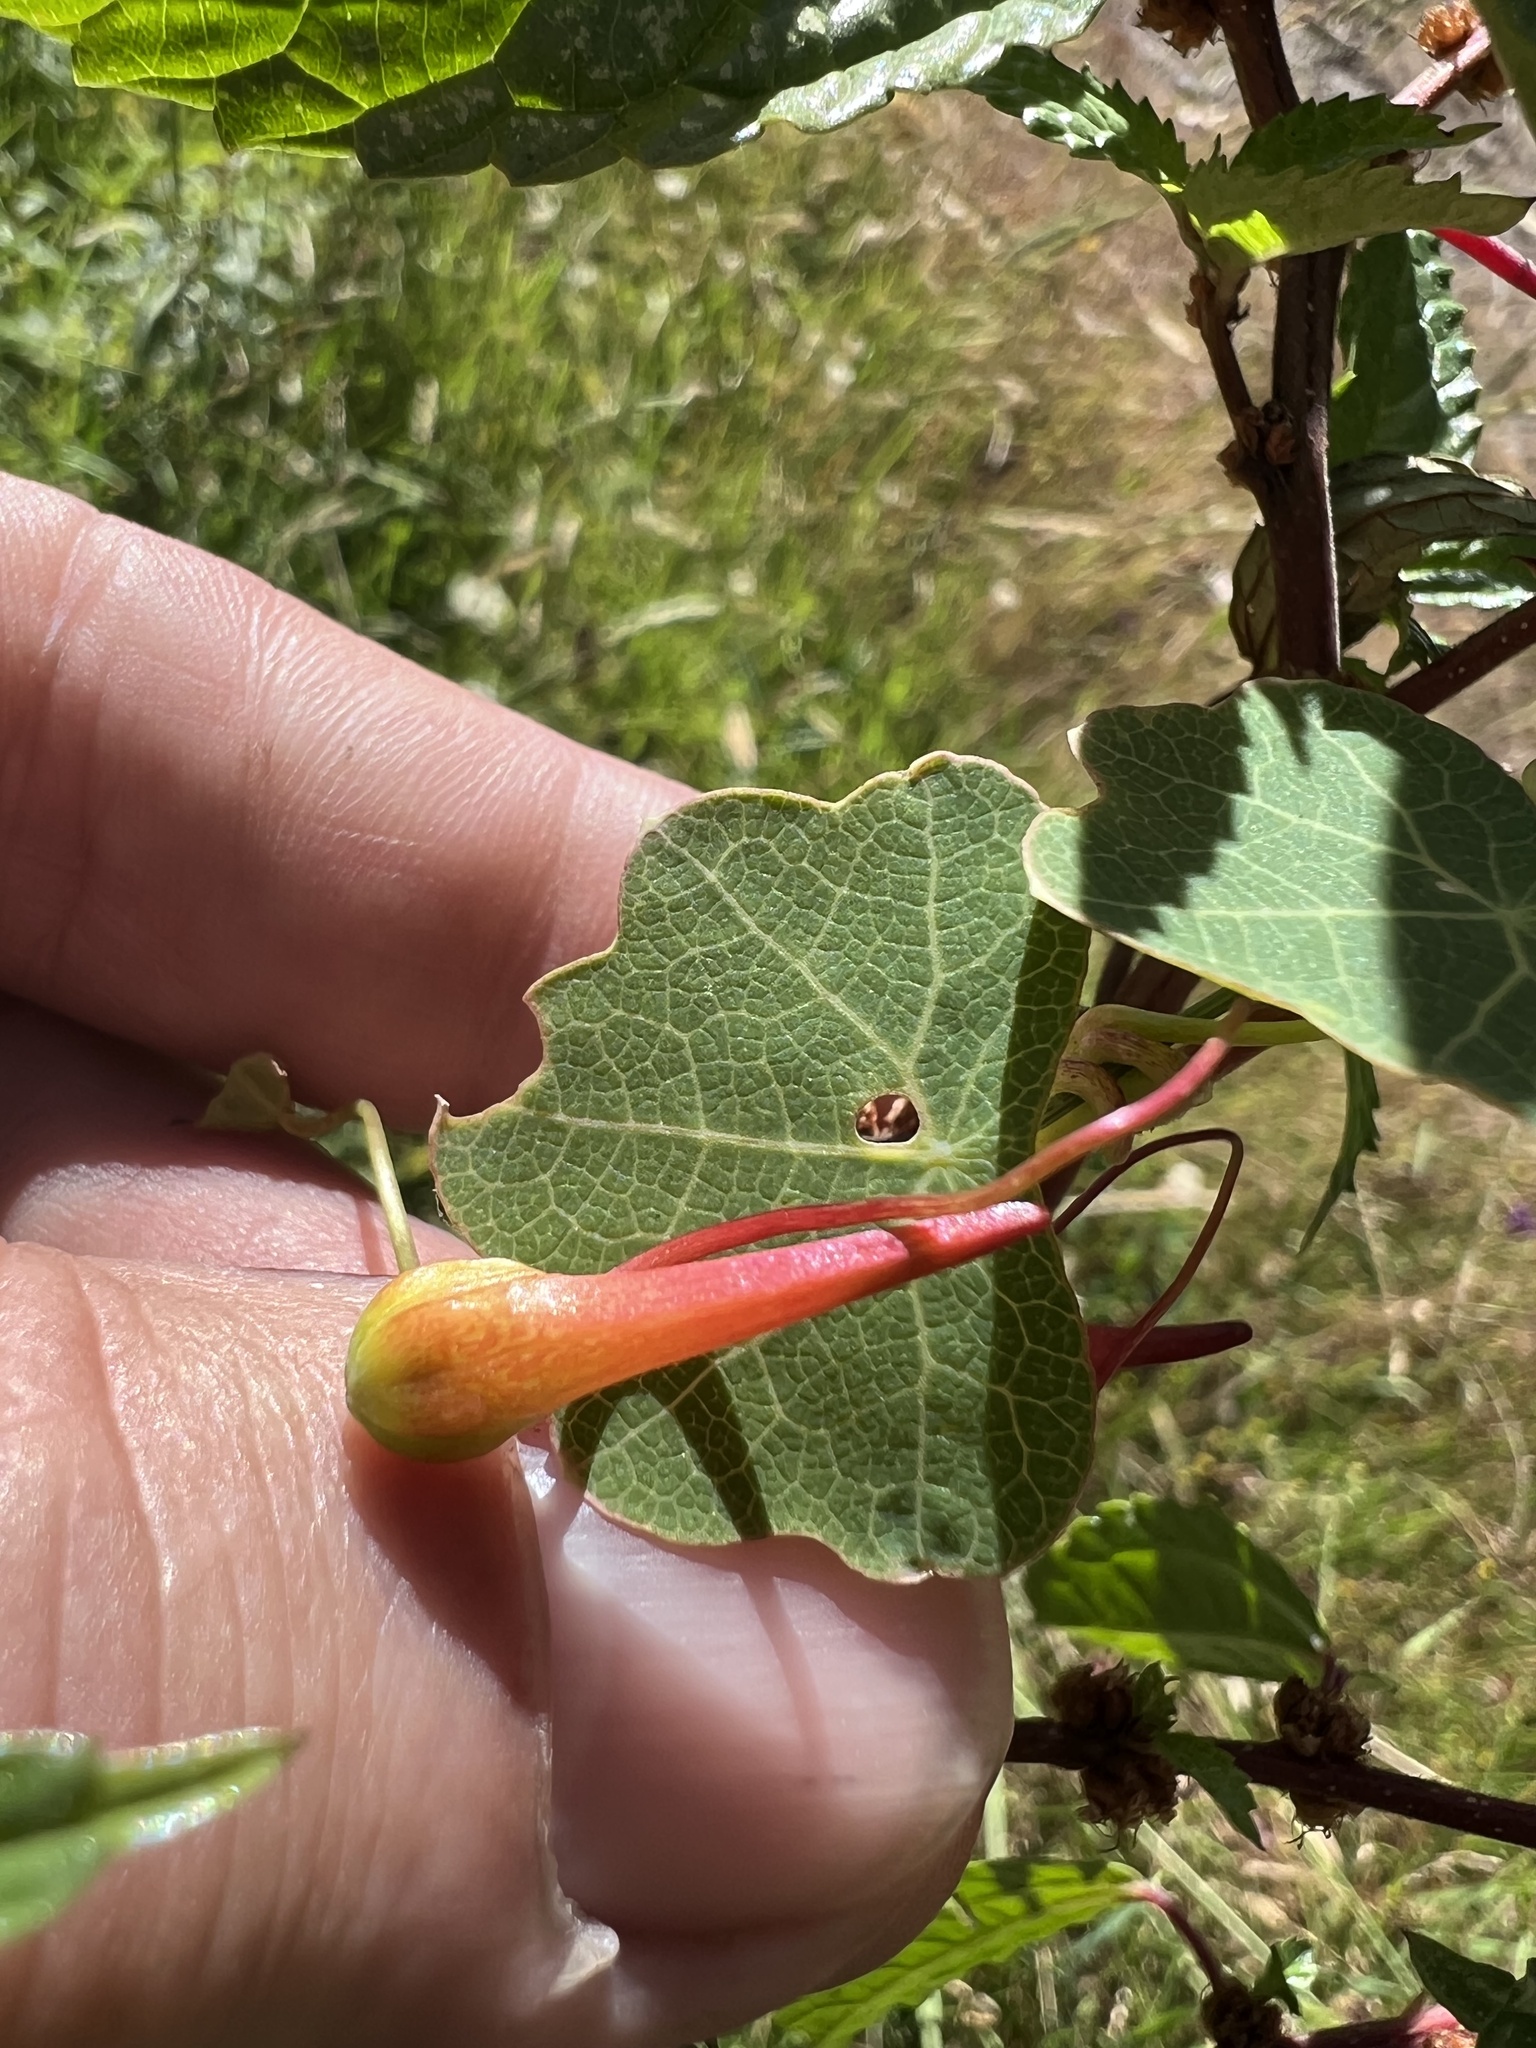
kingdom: Plantae
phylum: Tracheophyta
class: Magnoliopsida
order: Brassicales
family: Tropaeolaceae
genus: Tropaeolum
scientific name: Tropaeolum emarginatum
